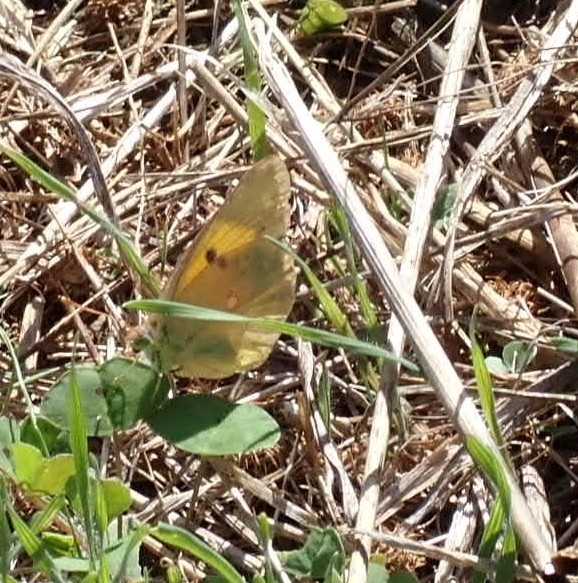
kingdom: Animalia
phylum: Arthropoda
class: Insecta
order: Lepidoptera
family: Pieridae
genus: Colias
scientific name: Colias croceus
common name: Clouded yellow
